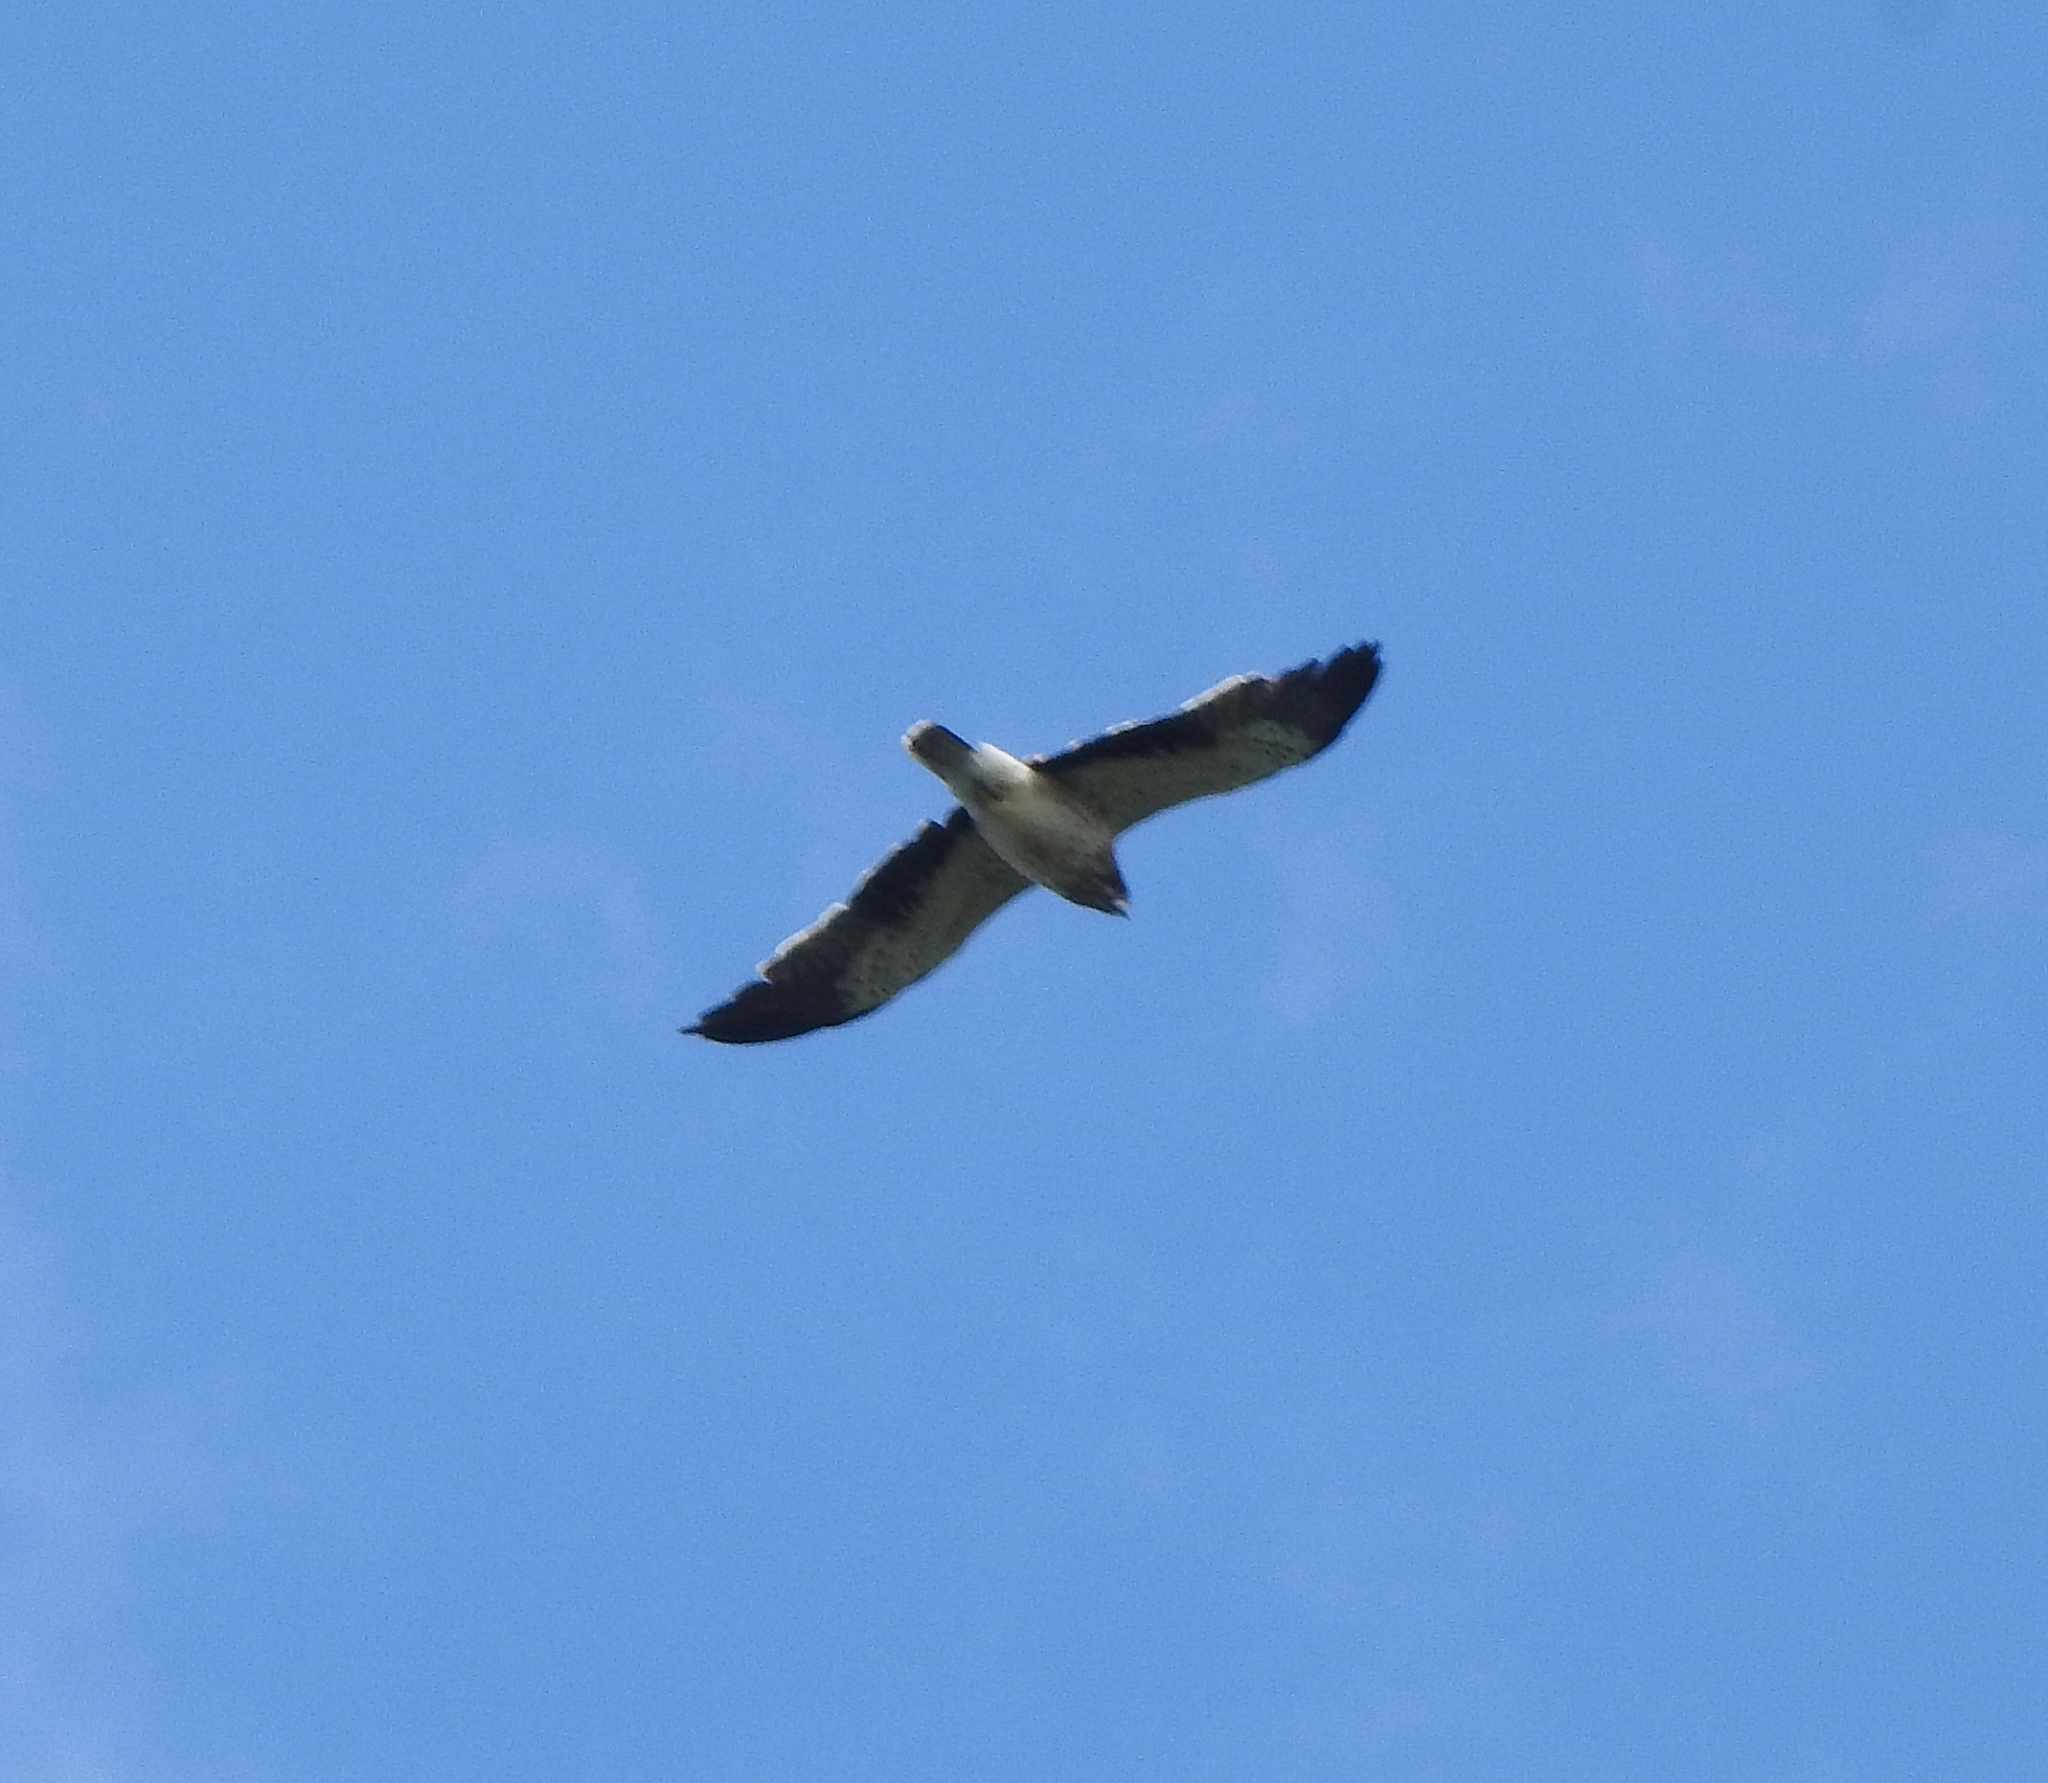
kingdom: Animalia
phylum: Chordata
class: Aves
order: Accipitriformes
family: Accipitridae
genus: Hieraaetus
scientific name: Hieraaetus pennatus
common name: Booted eagle
